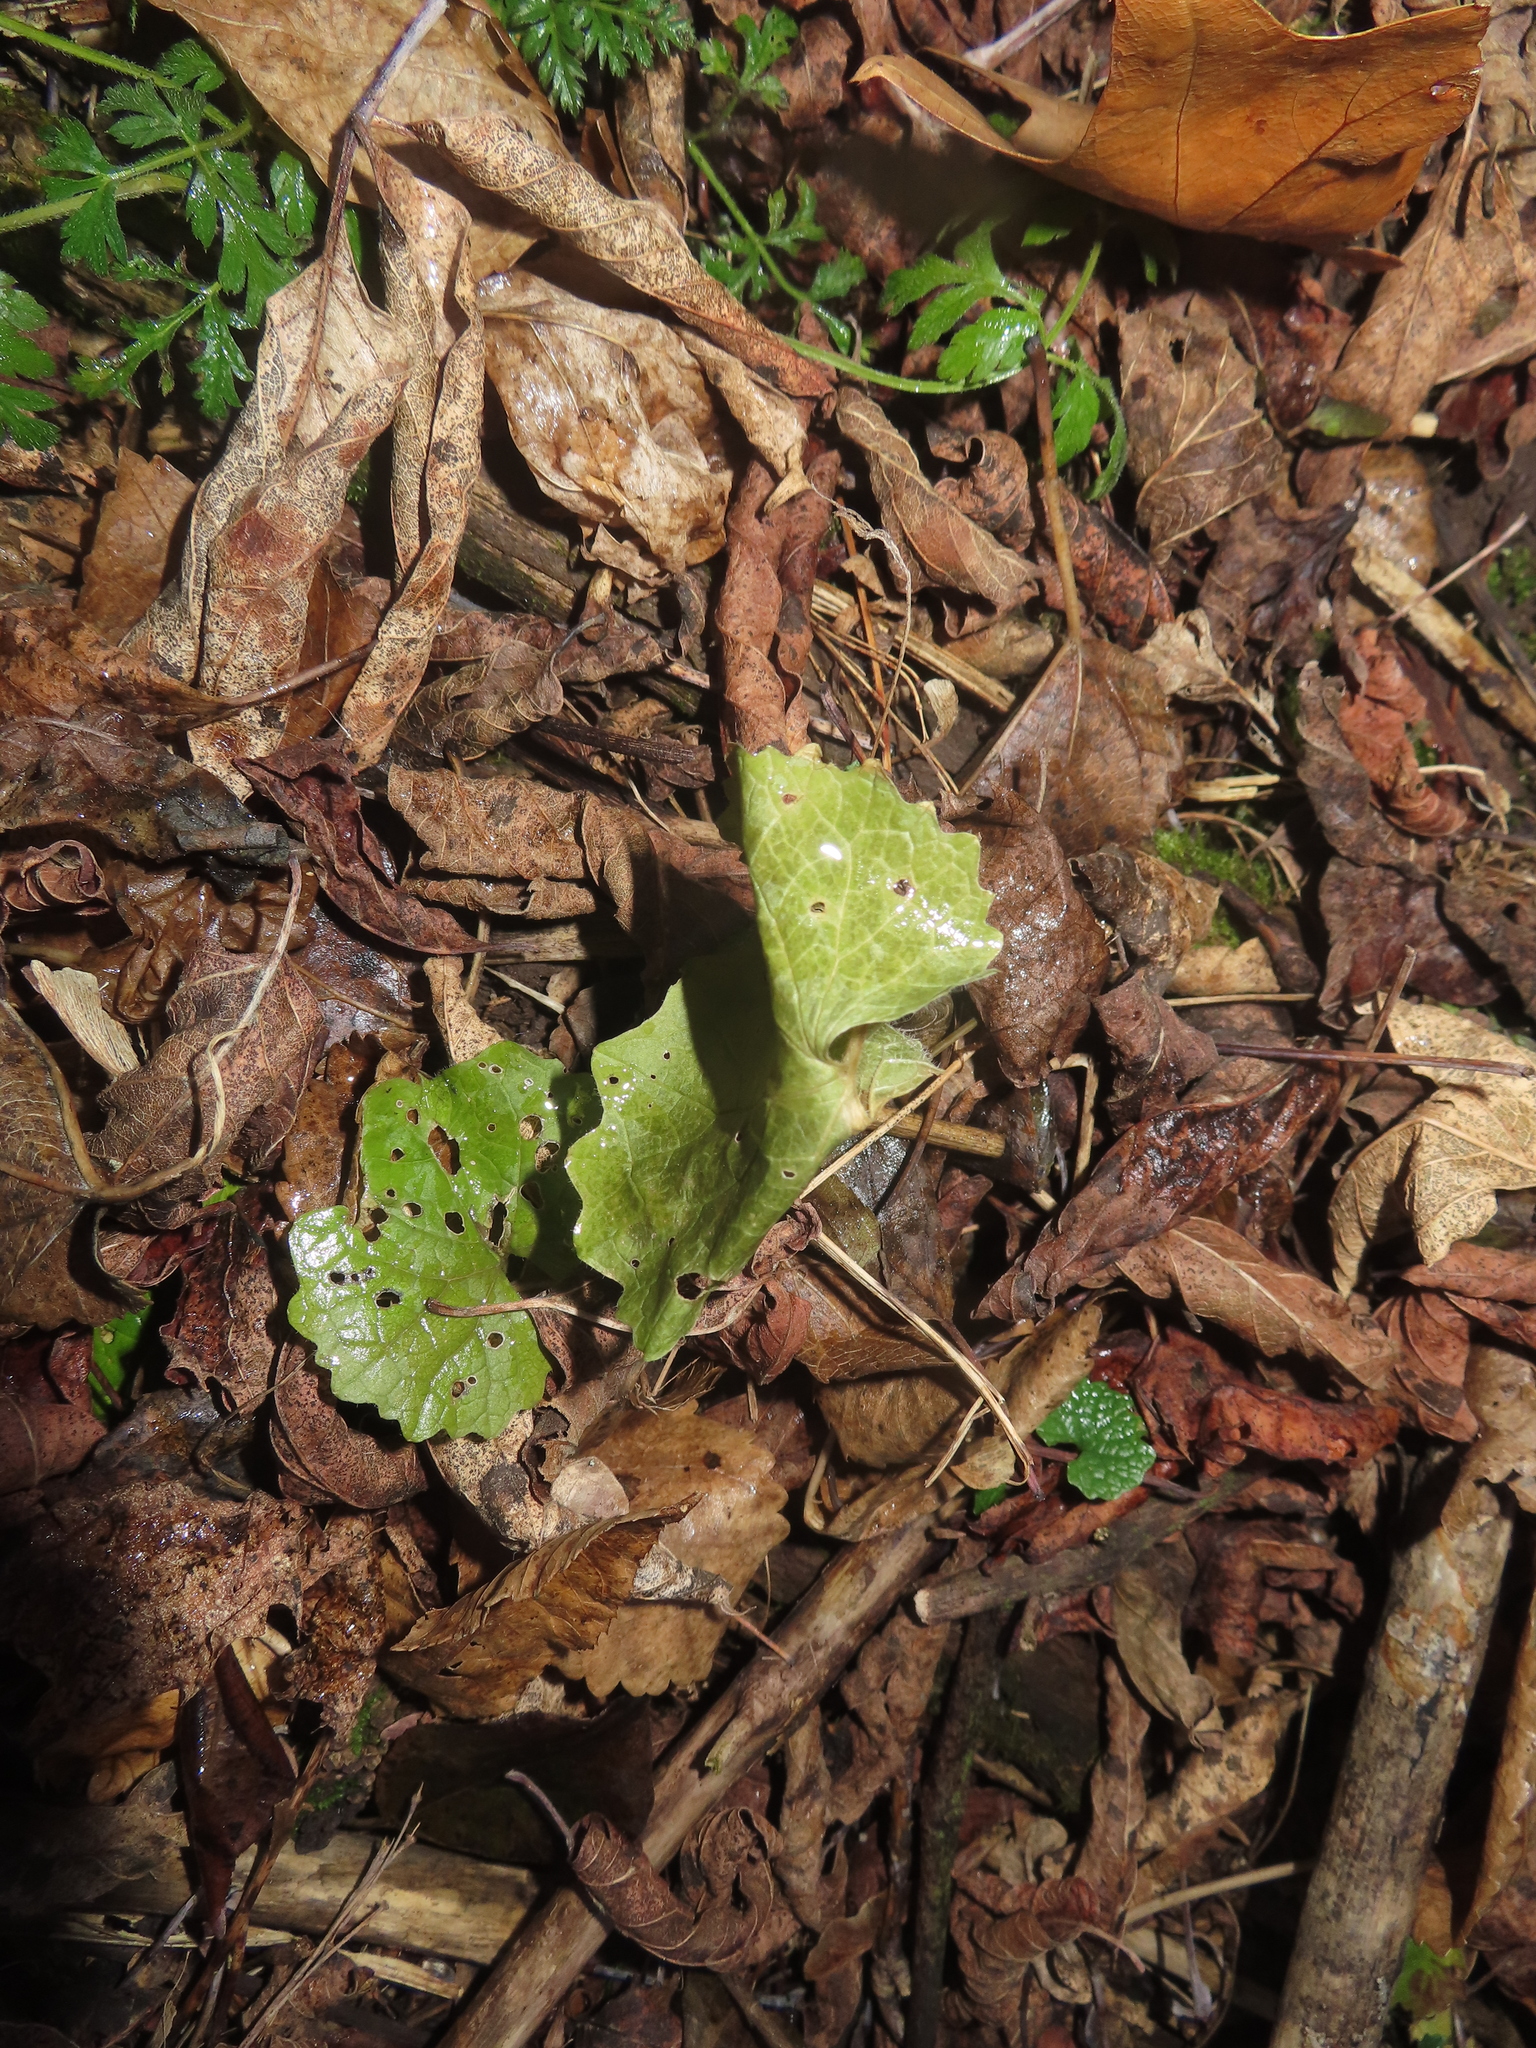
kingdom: Plantae
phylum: Tracheophyta
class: Magnoliopsida
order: Brassicales
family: Brassicaceae
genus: Alliaria
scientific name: Alliaria petiolata
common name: Garlic mustard
